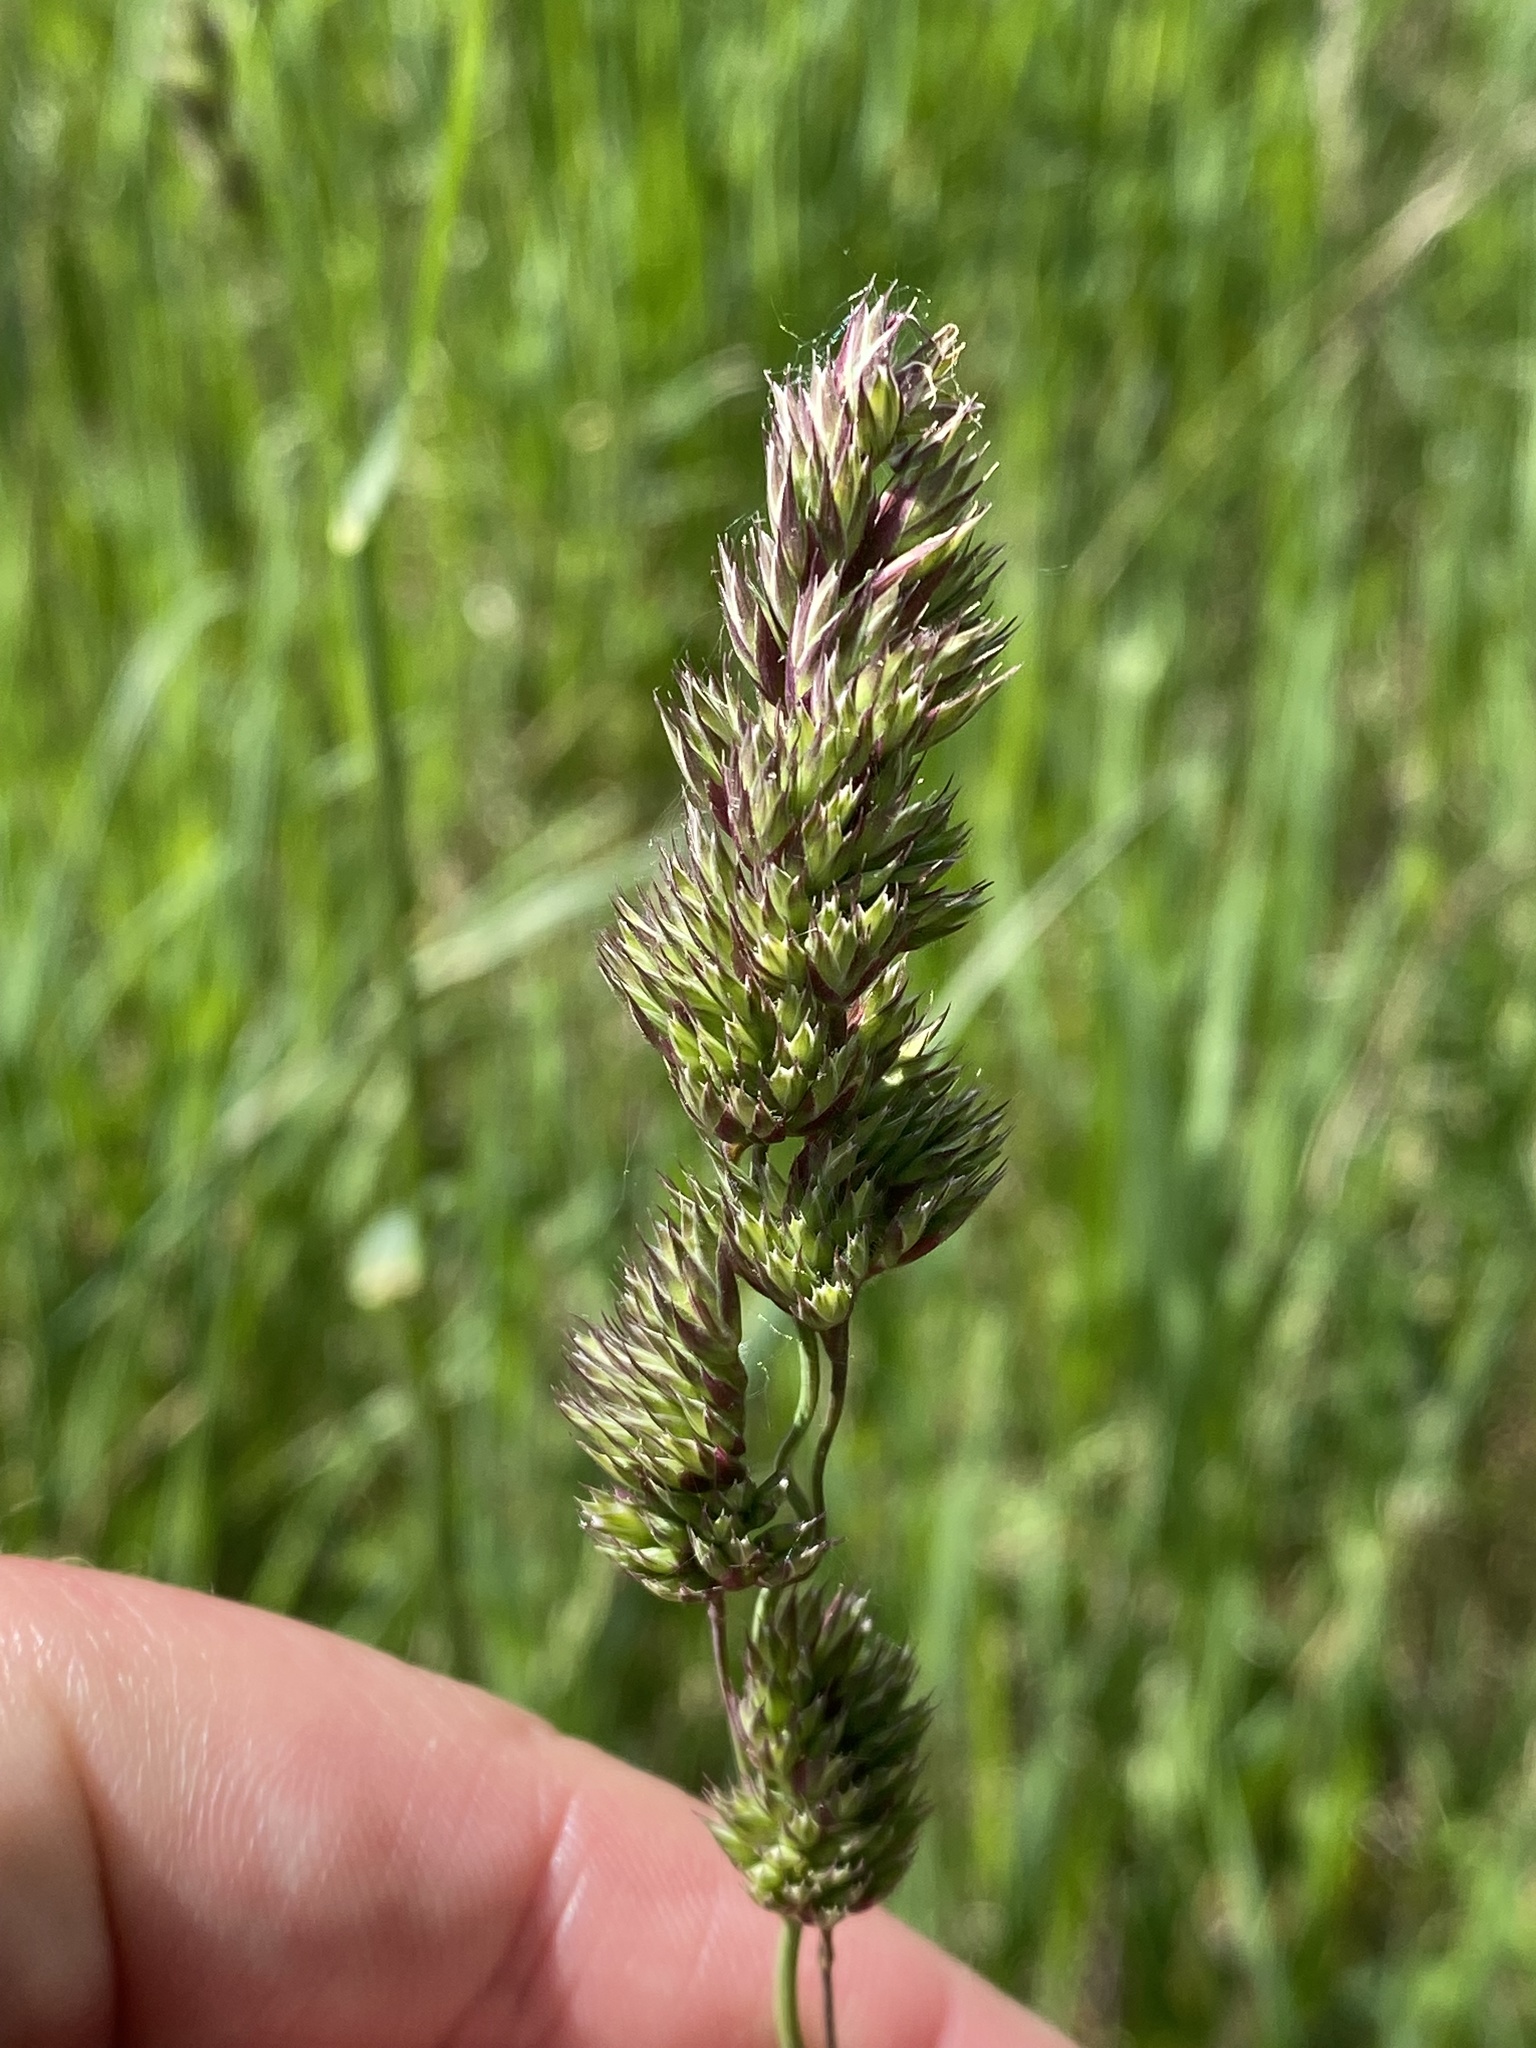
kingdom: Plantae
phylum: Tracheophyta
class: Liliopsida
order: Poales
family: Poaceae
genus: Dactylis
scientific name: Dactylis glomerata
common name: Orchardgrass
